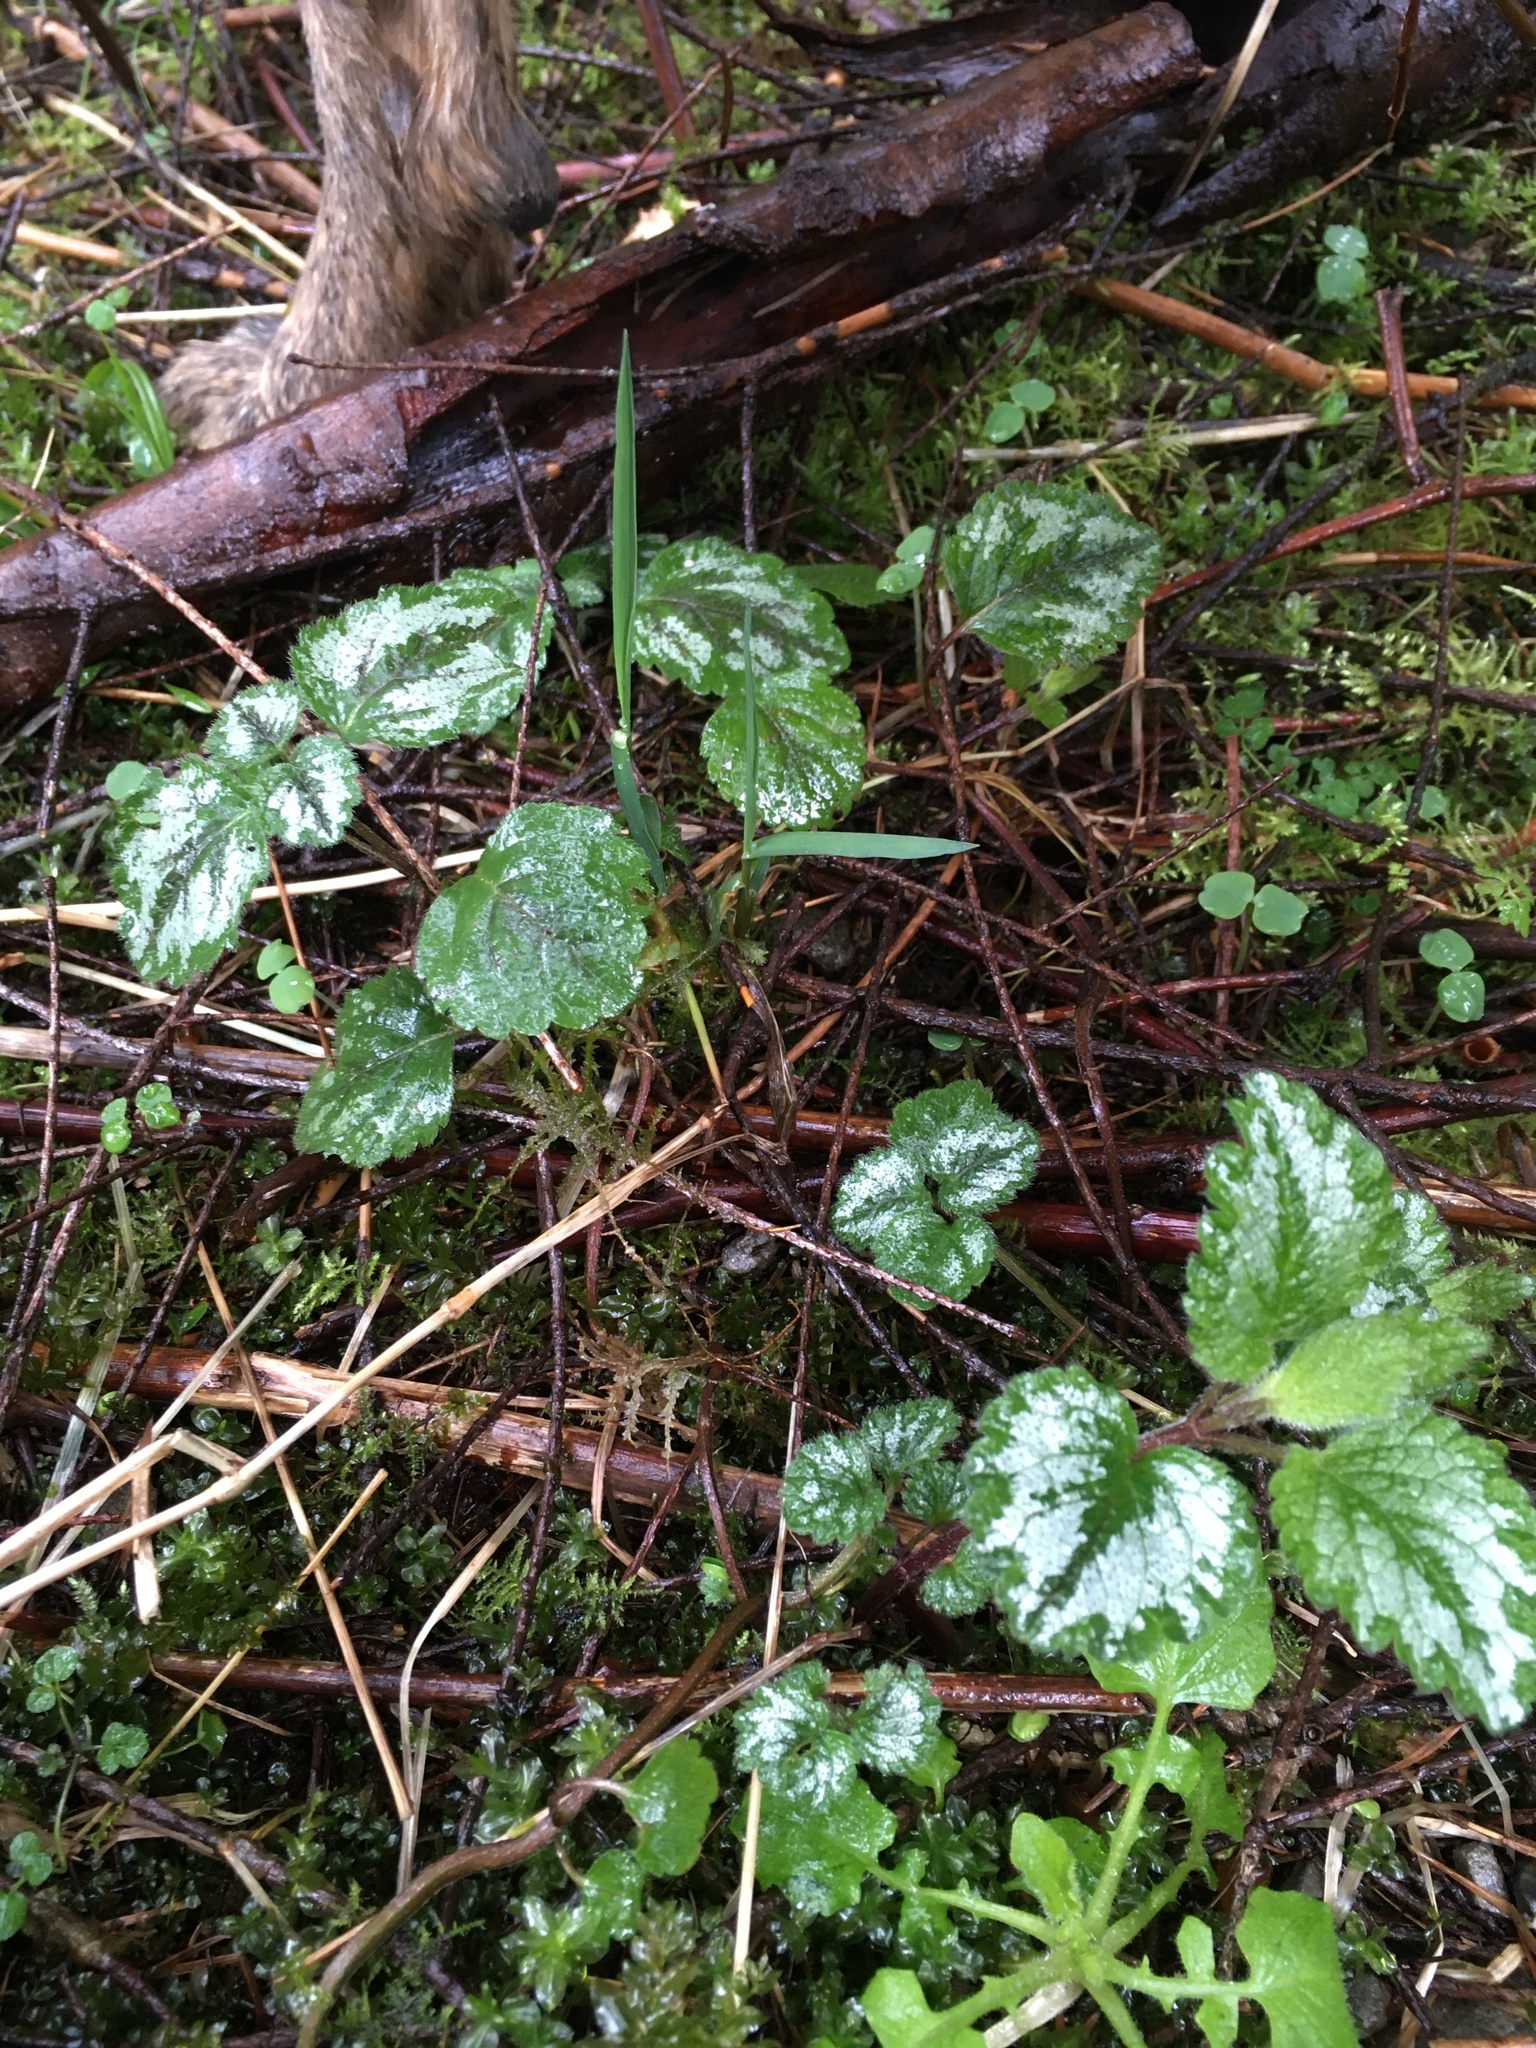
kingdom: Plantae
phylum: Tracheophyta
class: Magnoliopsida
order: Lamiales
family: Lamiaceae
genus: Lamium
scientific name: Lamium galeobdolon
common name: Yellow archangel
